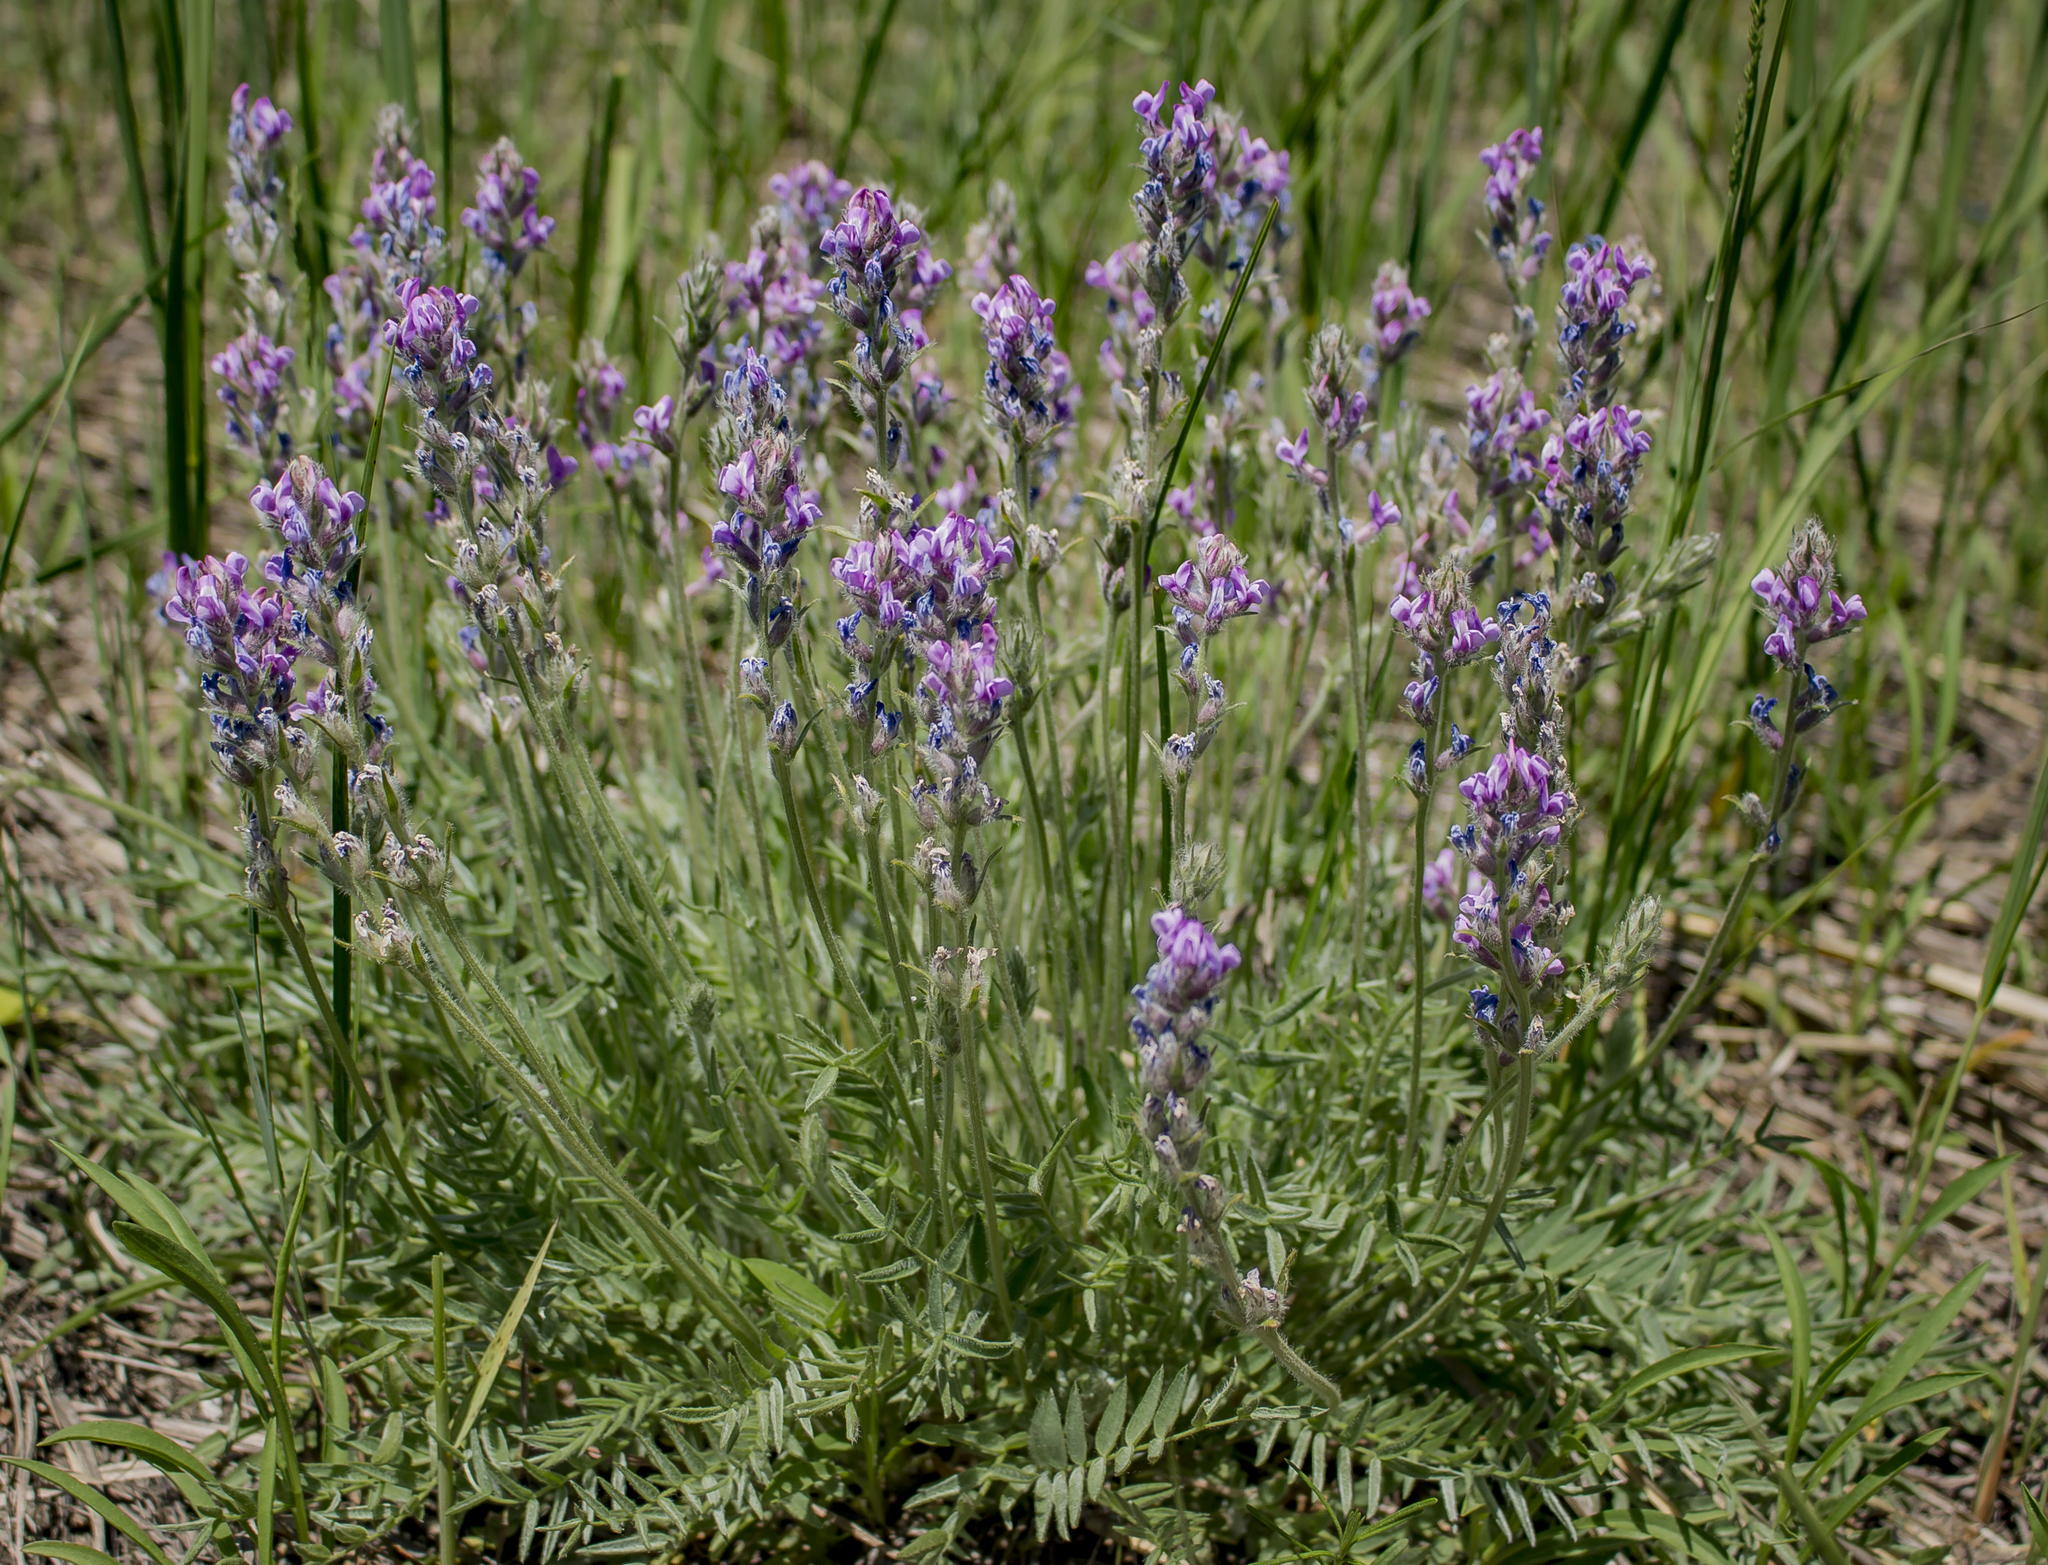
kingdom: Plantae
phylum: Tracheophyta
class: Magnoliopsida
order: Fabales
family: Fabaceae
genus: Oxytropis
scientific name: Oxytropis campestris
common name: Field locoweed
